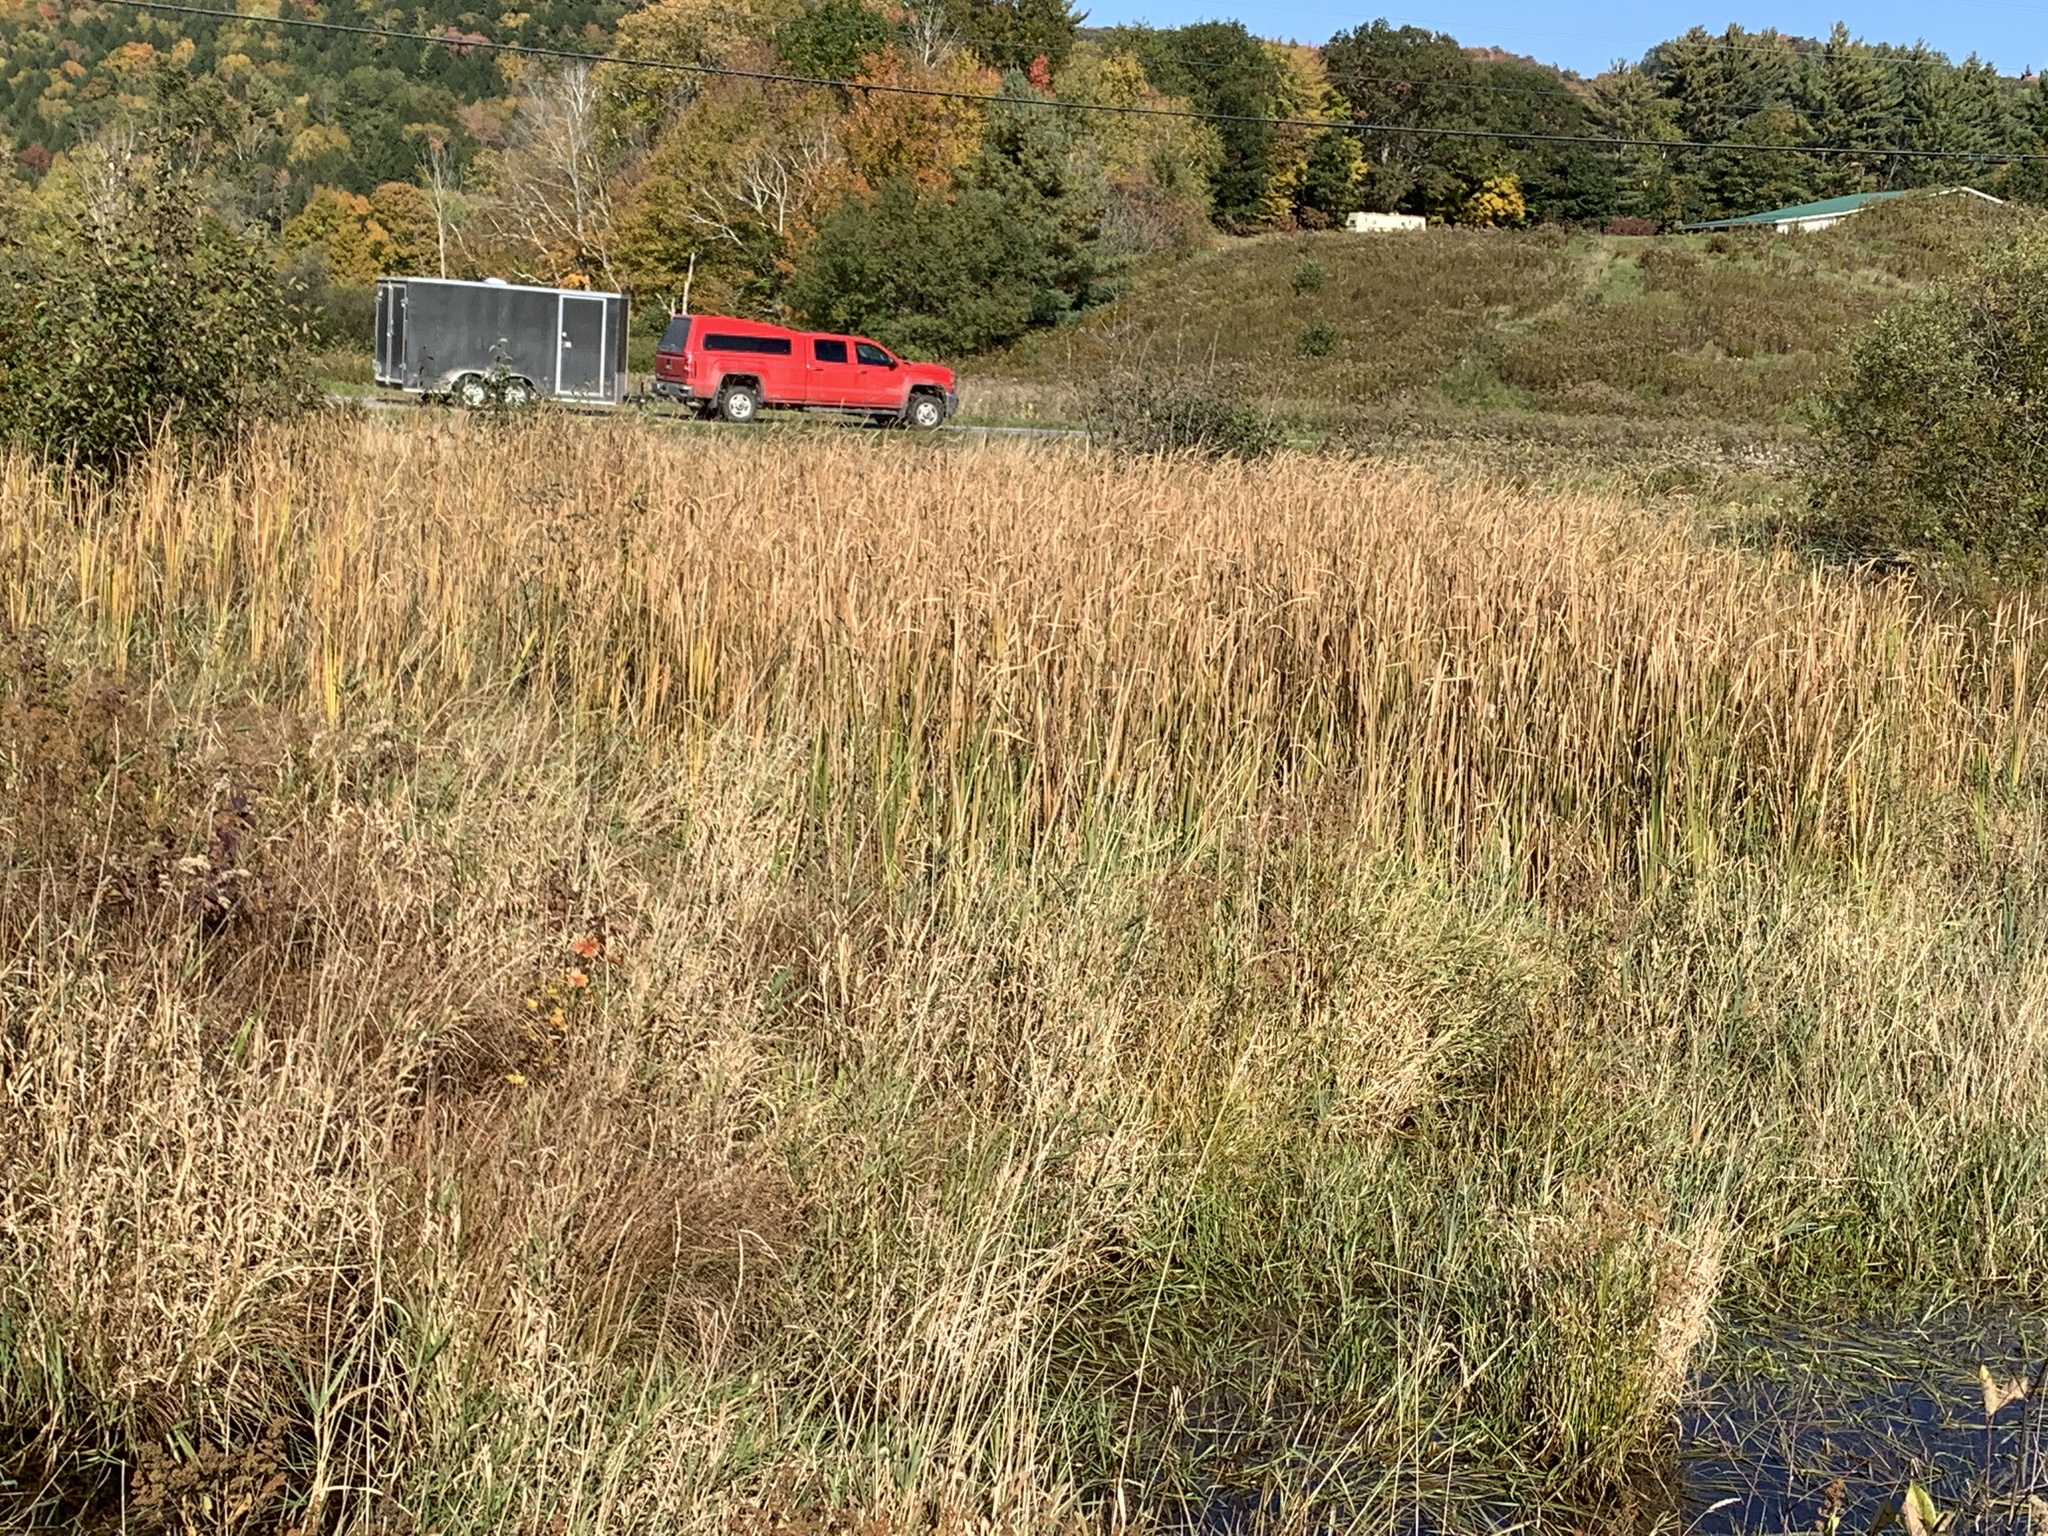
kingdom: Plantae
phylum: Tracheophyta
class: Liliopsida
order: Poales
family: Typhaceae
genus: Typha
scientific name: Typha
